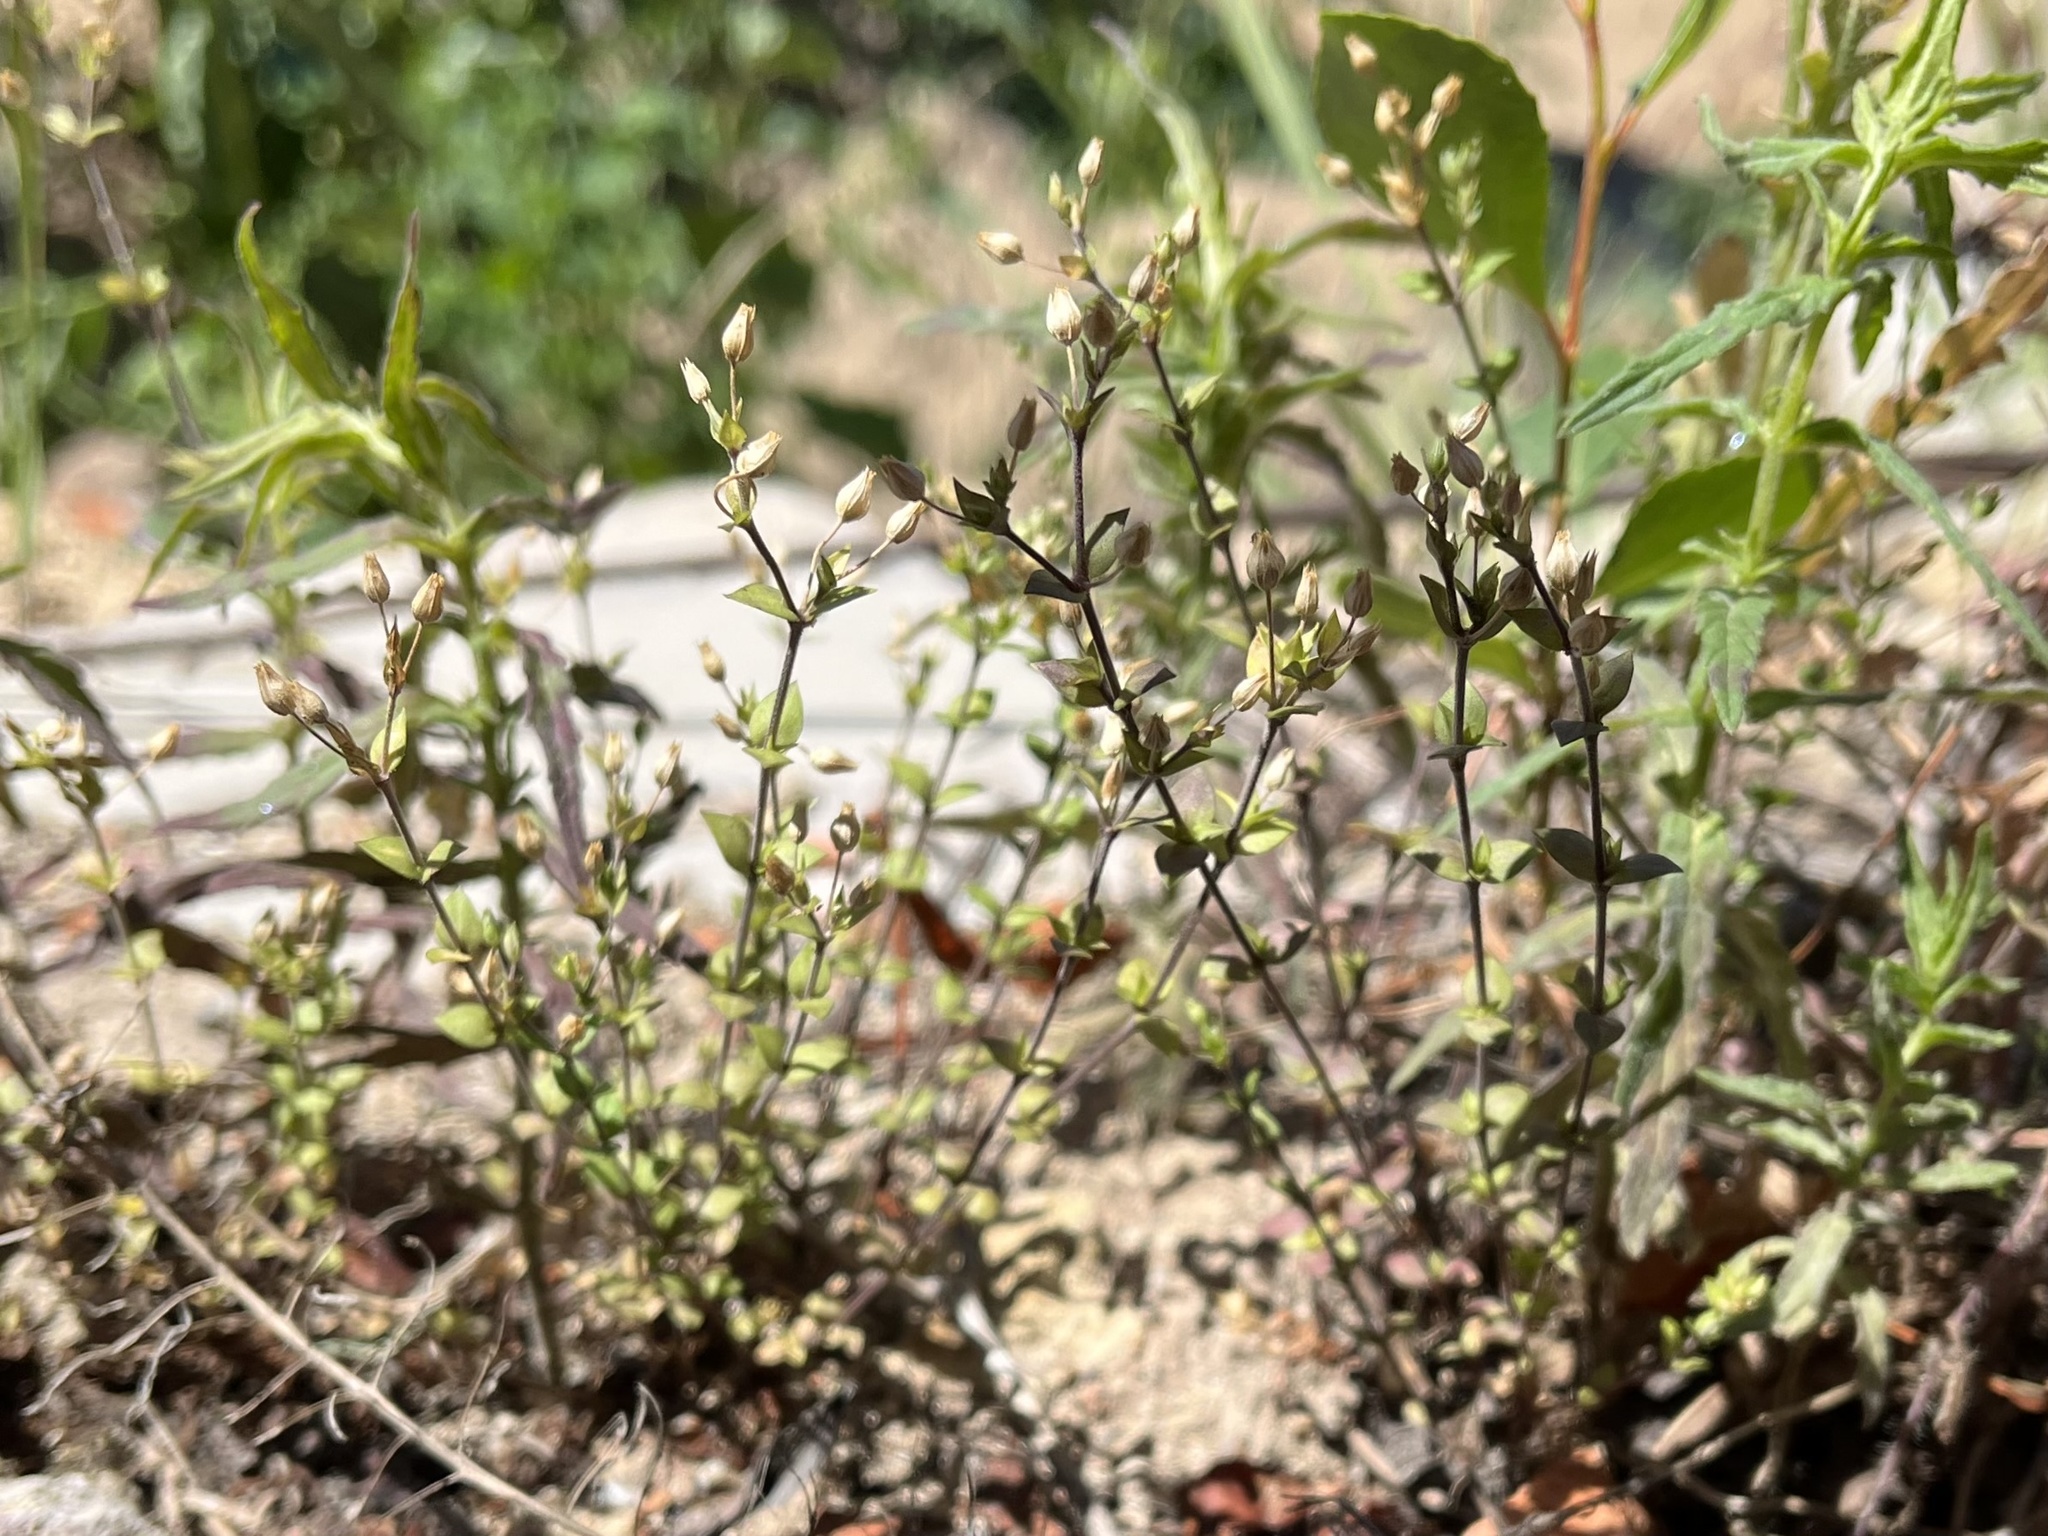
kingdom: Plantae
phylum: Tracheophyta
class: Magnoliopsida
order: Caryophyllales
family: Caryophyllaceae
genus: Arenaria
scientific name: Arenaria serpyllifolia
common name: Thyme-leaved sandwort
